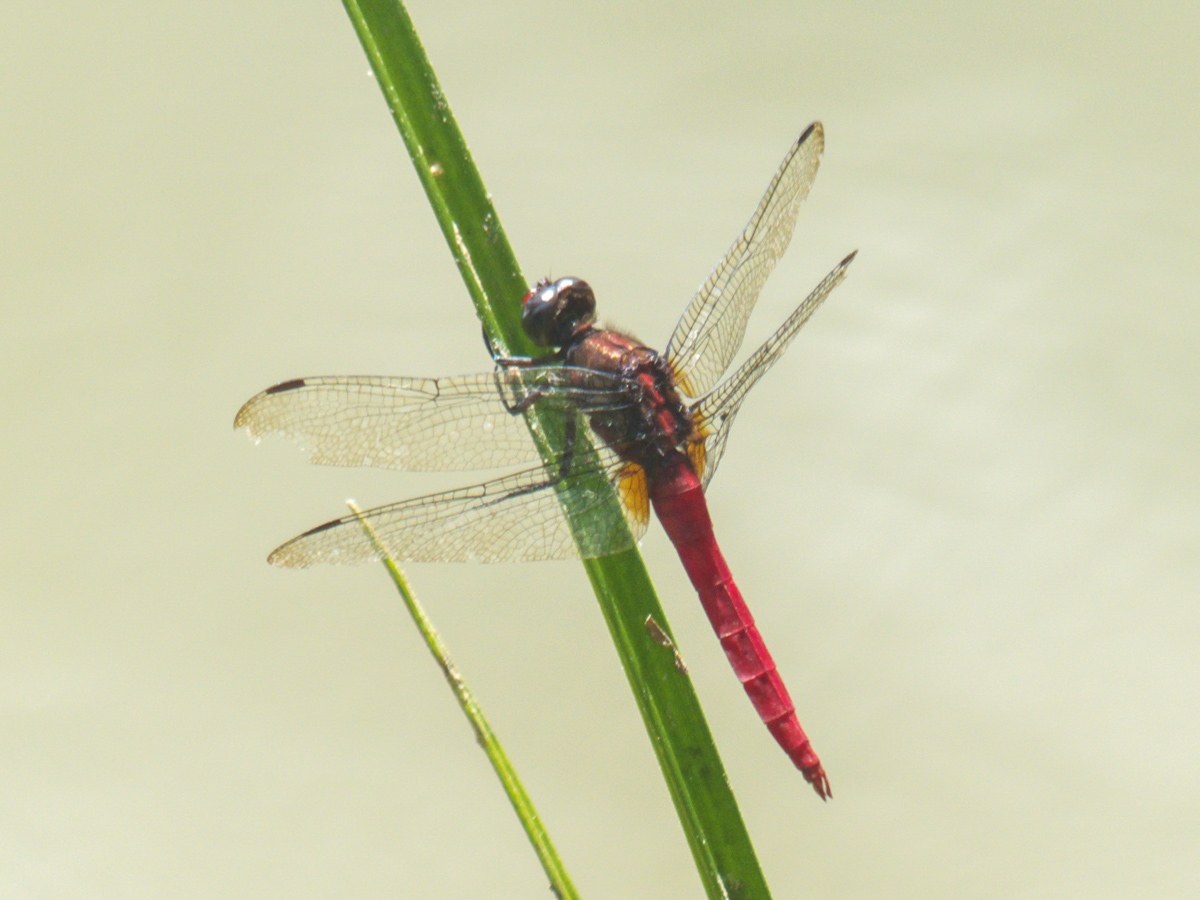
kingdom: Animalia
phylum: Arthropoda
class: Insecta
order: Odonata
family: Libellulidae
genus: Orthetrum
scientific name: Orthetrum chrysis
